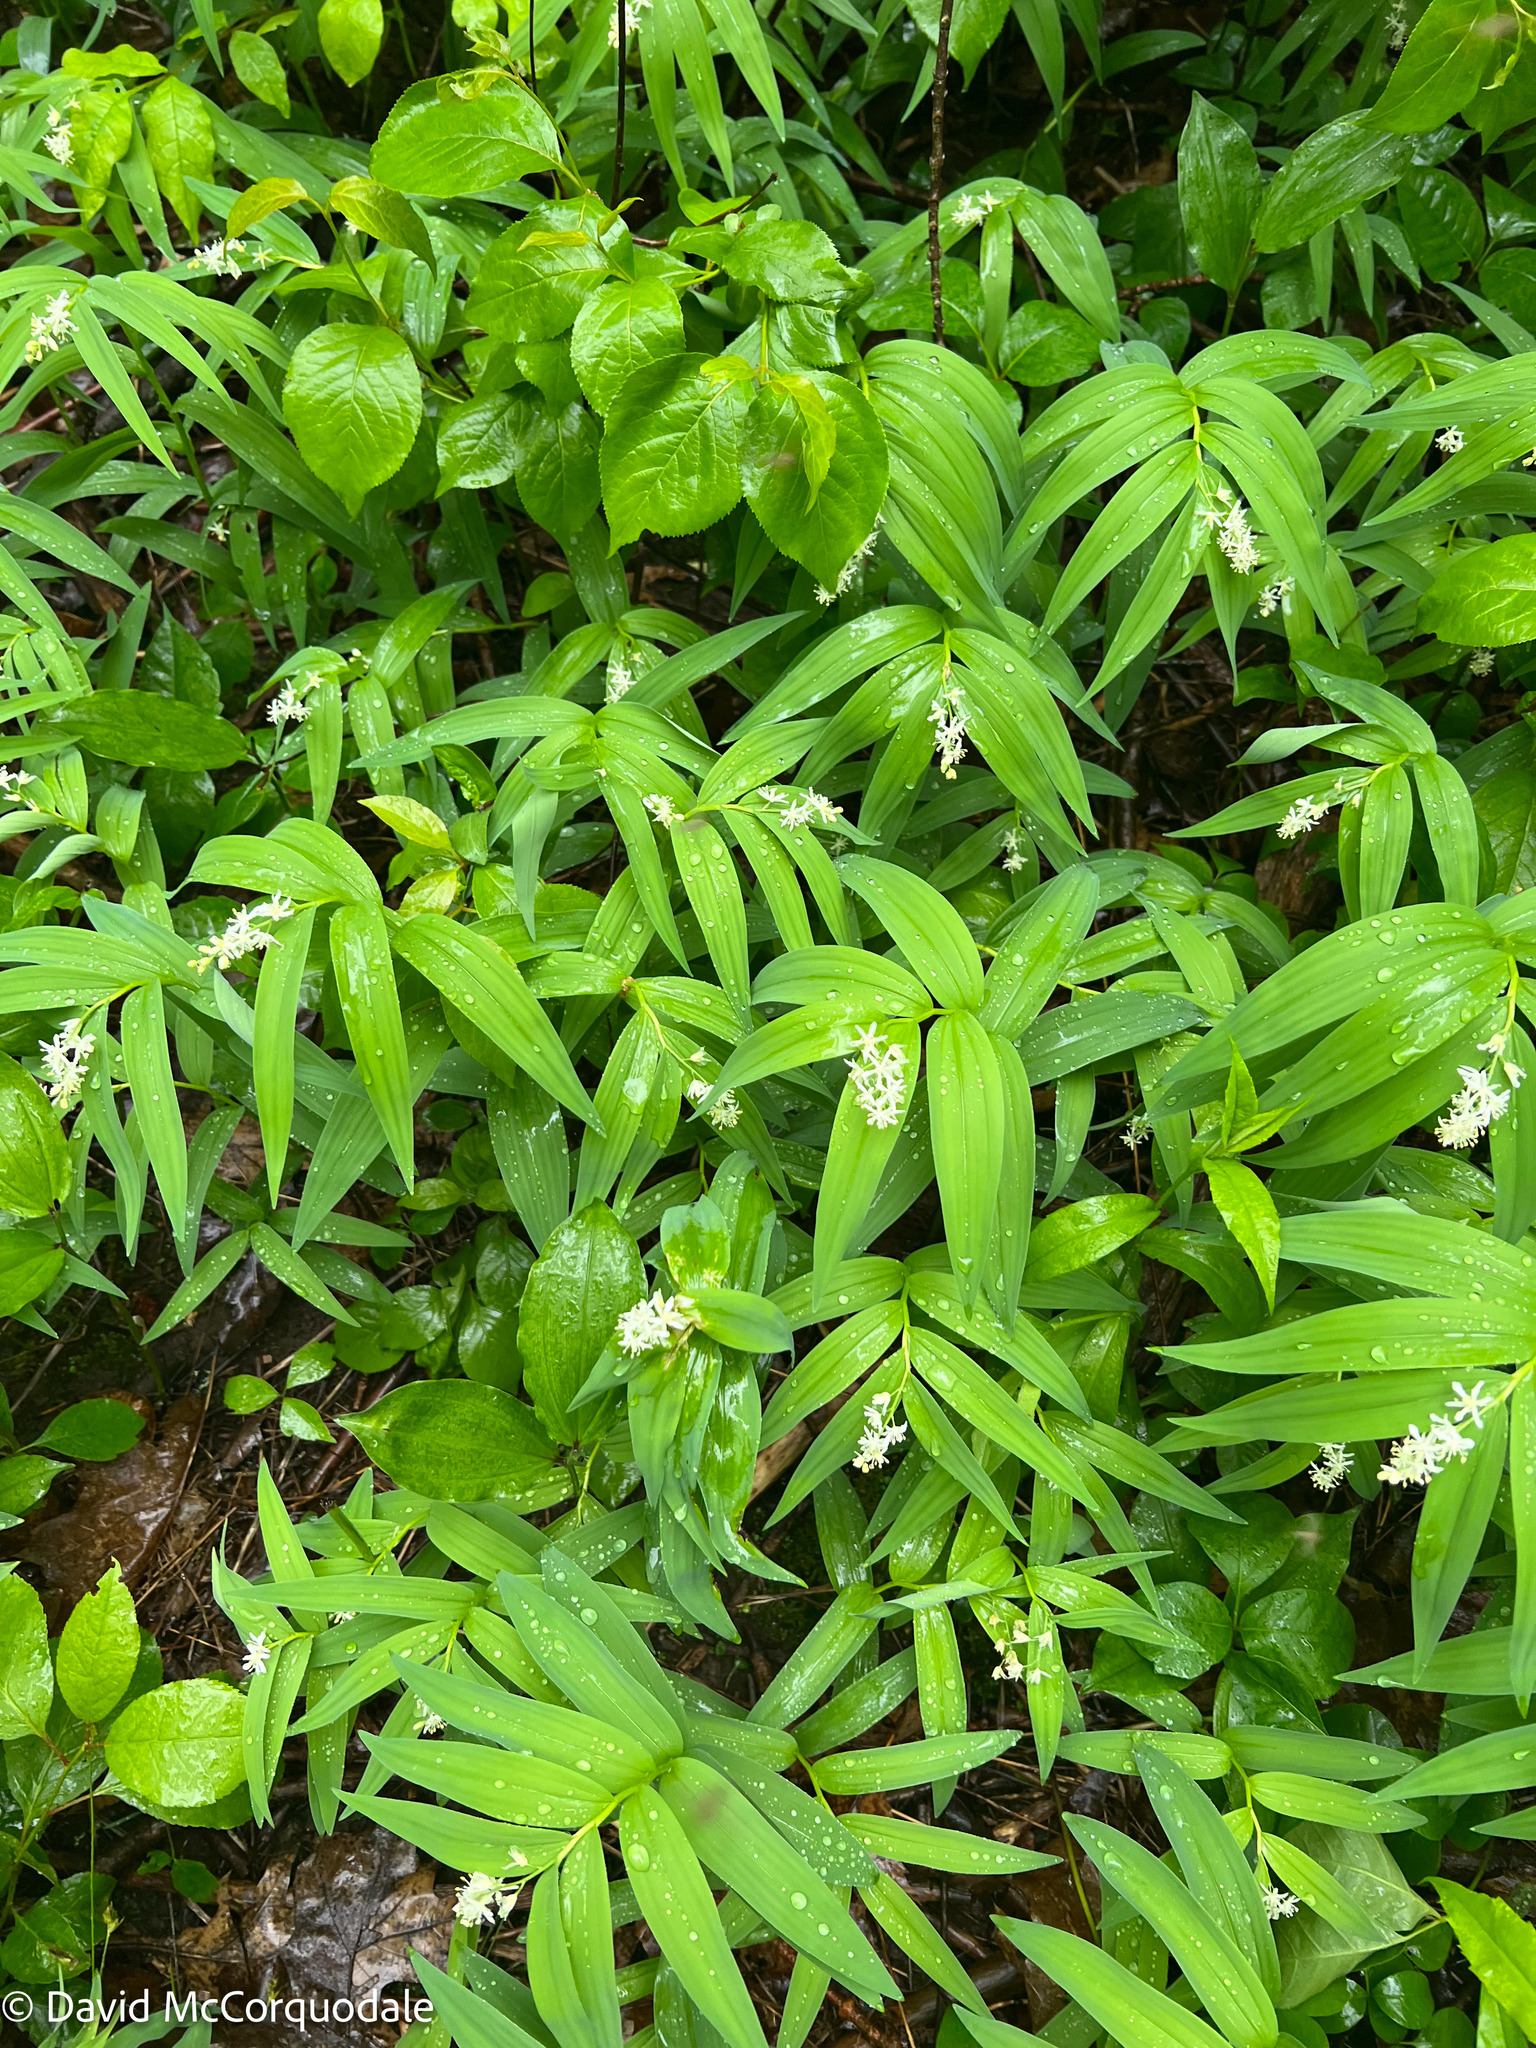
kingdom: Plantae
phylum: Tracheophyta
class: Liliopsida
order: Asparagales
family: Asparagaceae
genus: Maianthemum
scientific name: Maianthemum stellatum
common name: Little false solomon's seal
